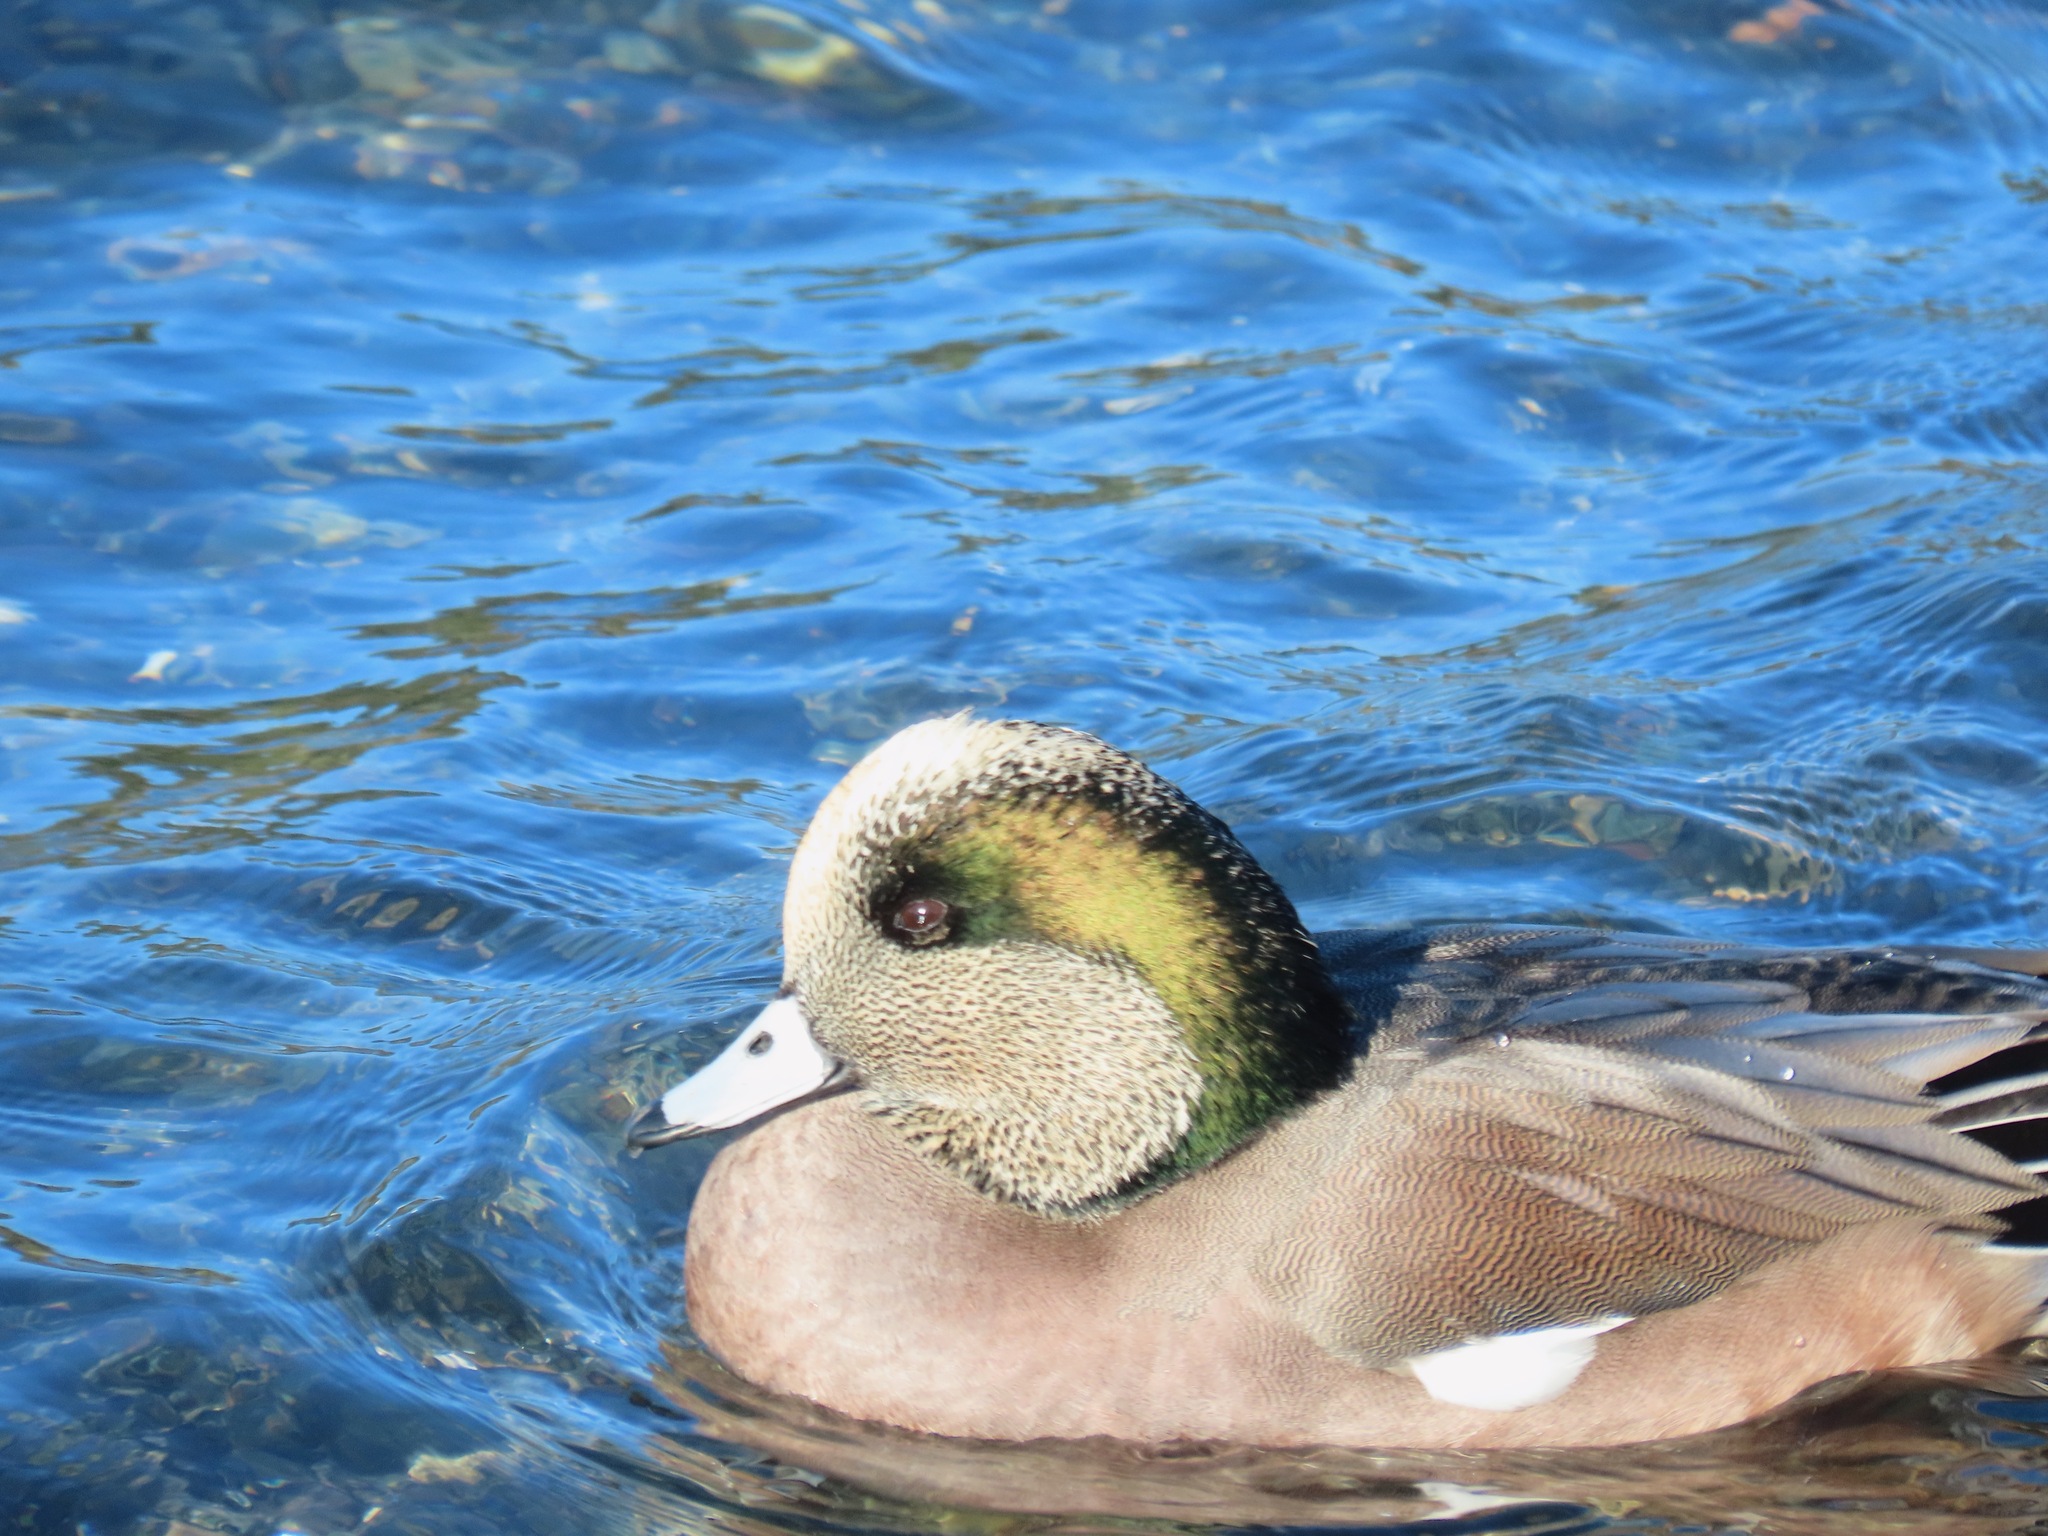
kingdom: Animalia
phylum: Chordata
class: Aves
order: Anseriformes
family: Anatidae
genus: Mareca
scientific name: Mareca americana
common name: American wigeon
